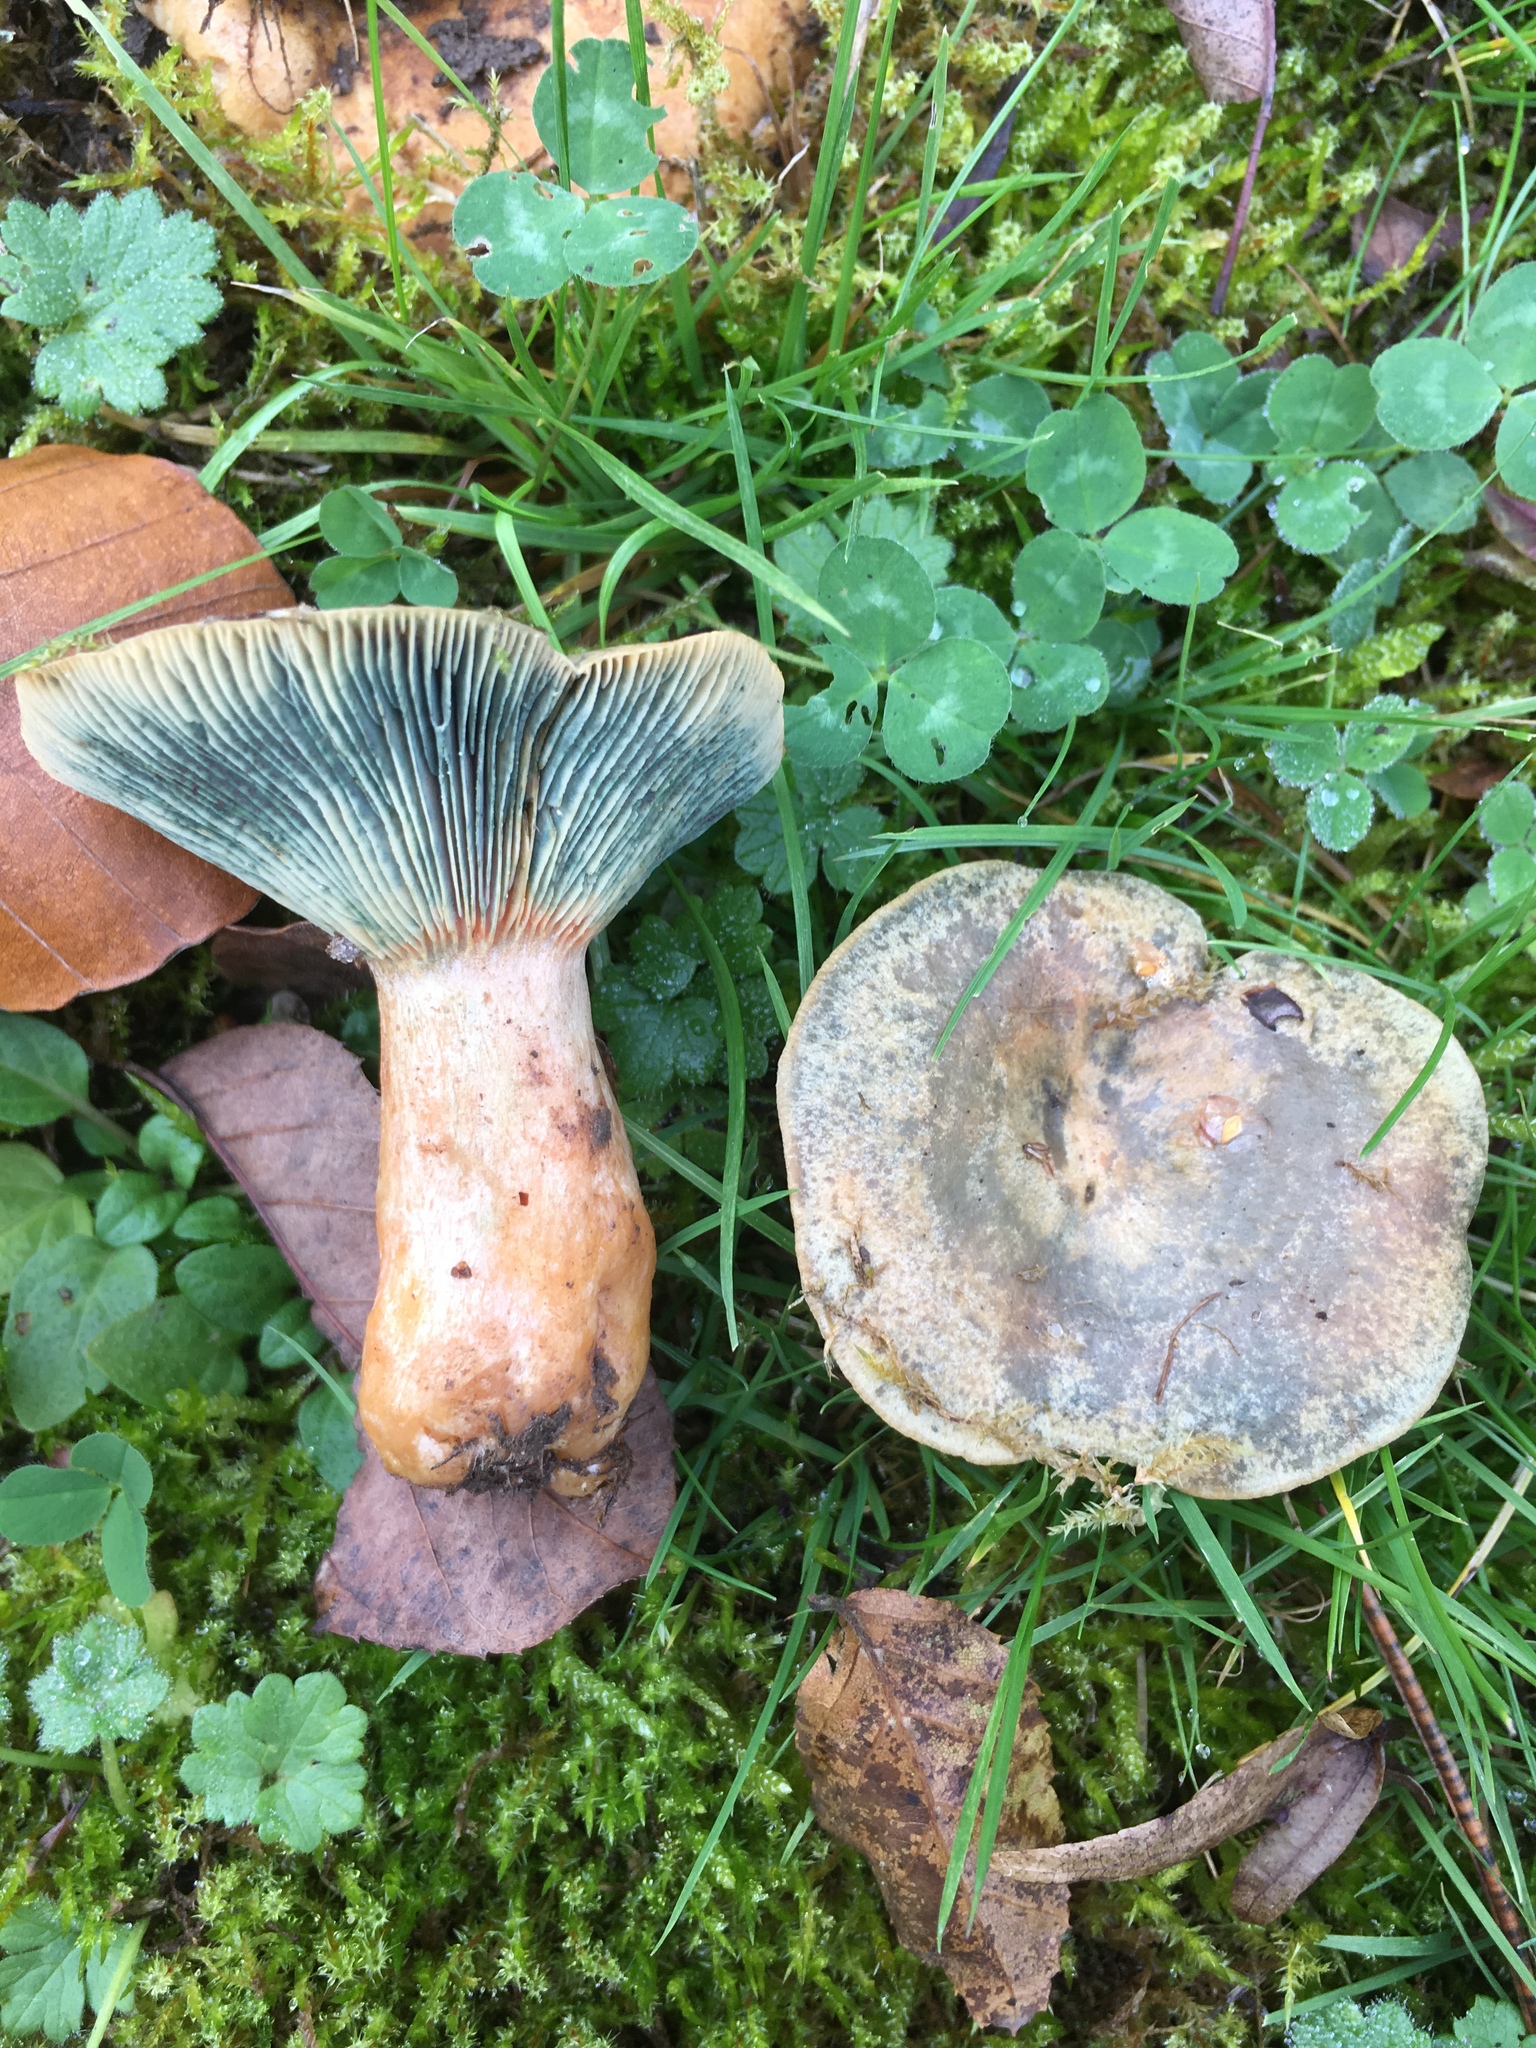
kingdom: Fungi
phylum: Basidiomycota
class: Agaricomycetes
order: Russulales
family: Russulaceae
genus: Lactarius
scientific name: Lactarius deterrimus
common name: False saffron milkcap
